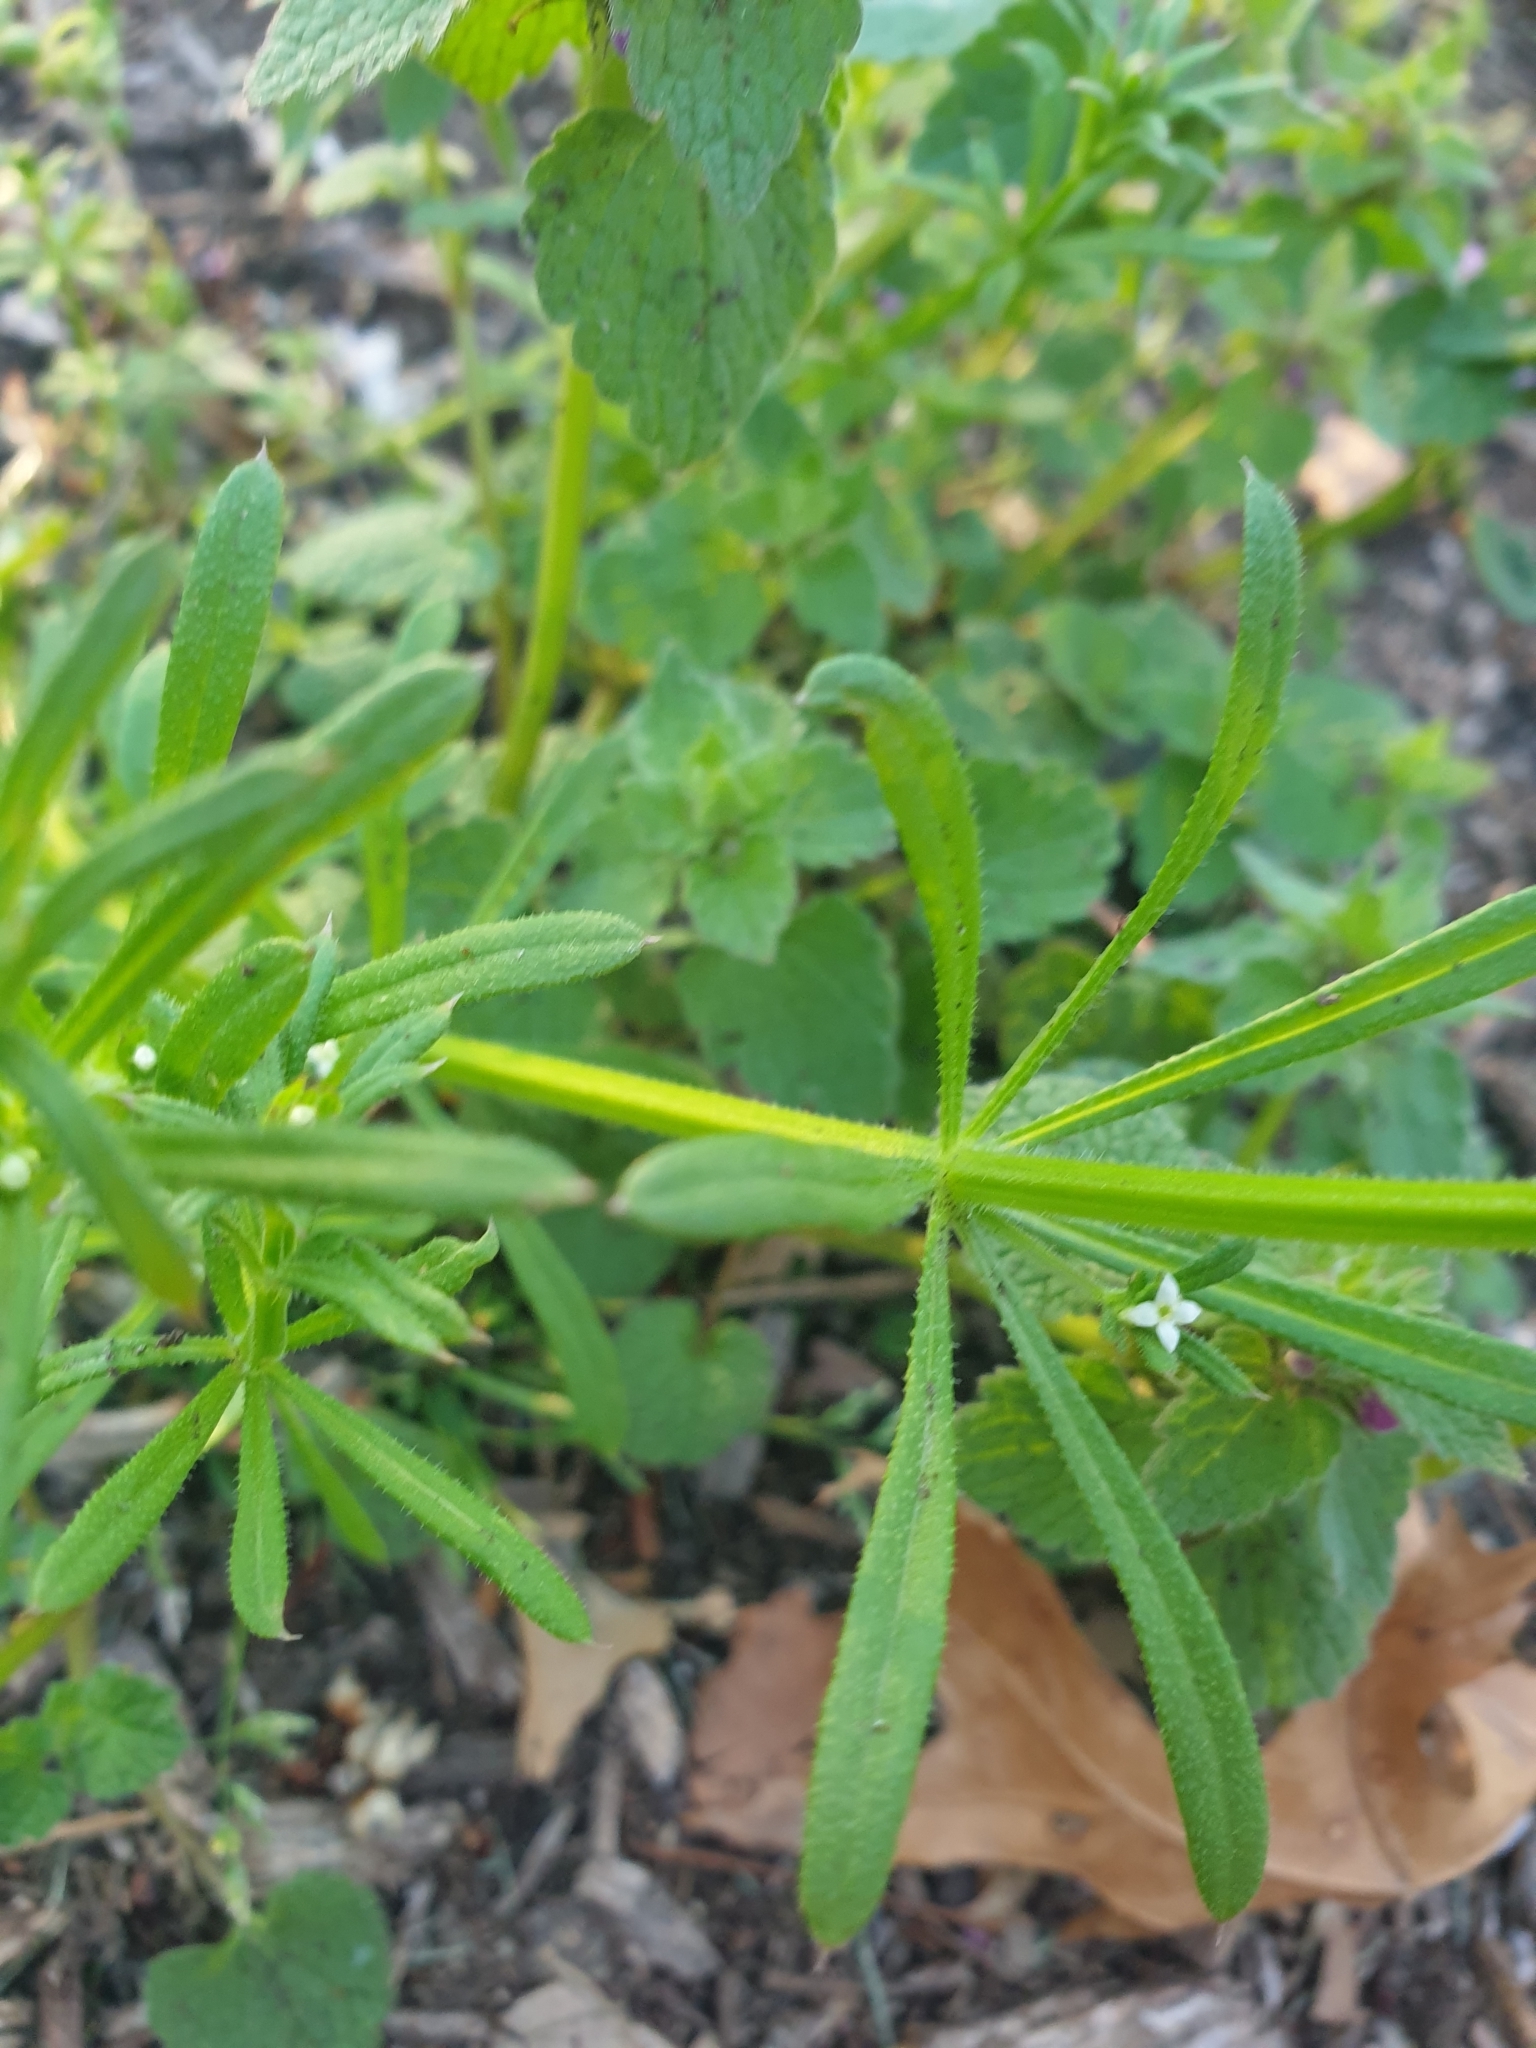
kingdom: Plantae
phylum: Tracheophyta
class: Magnoliopsida
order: Gentianales
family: Rubiaceae
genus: Galium
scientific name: Galium aparine
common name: Cleavers
